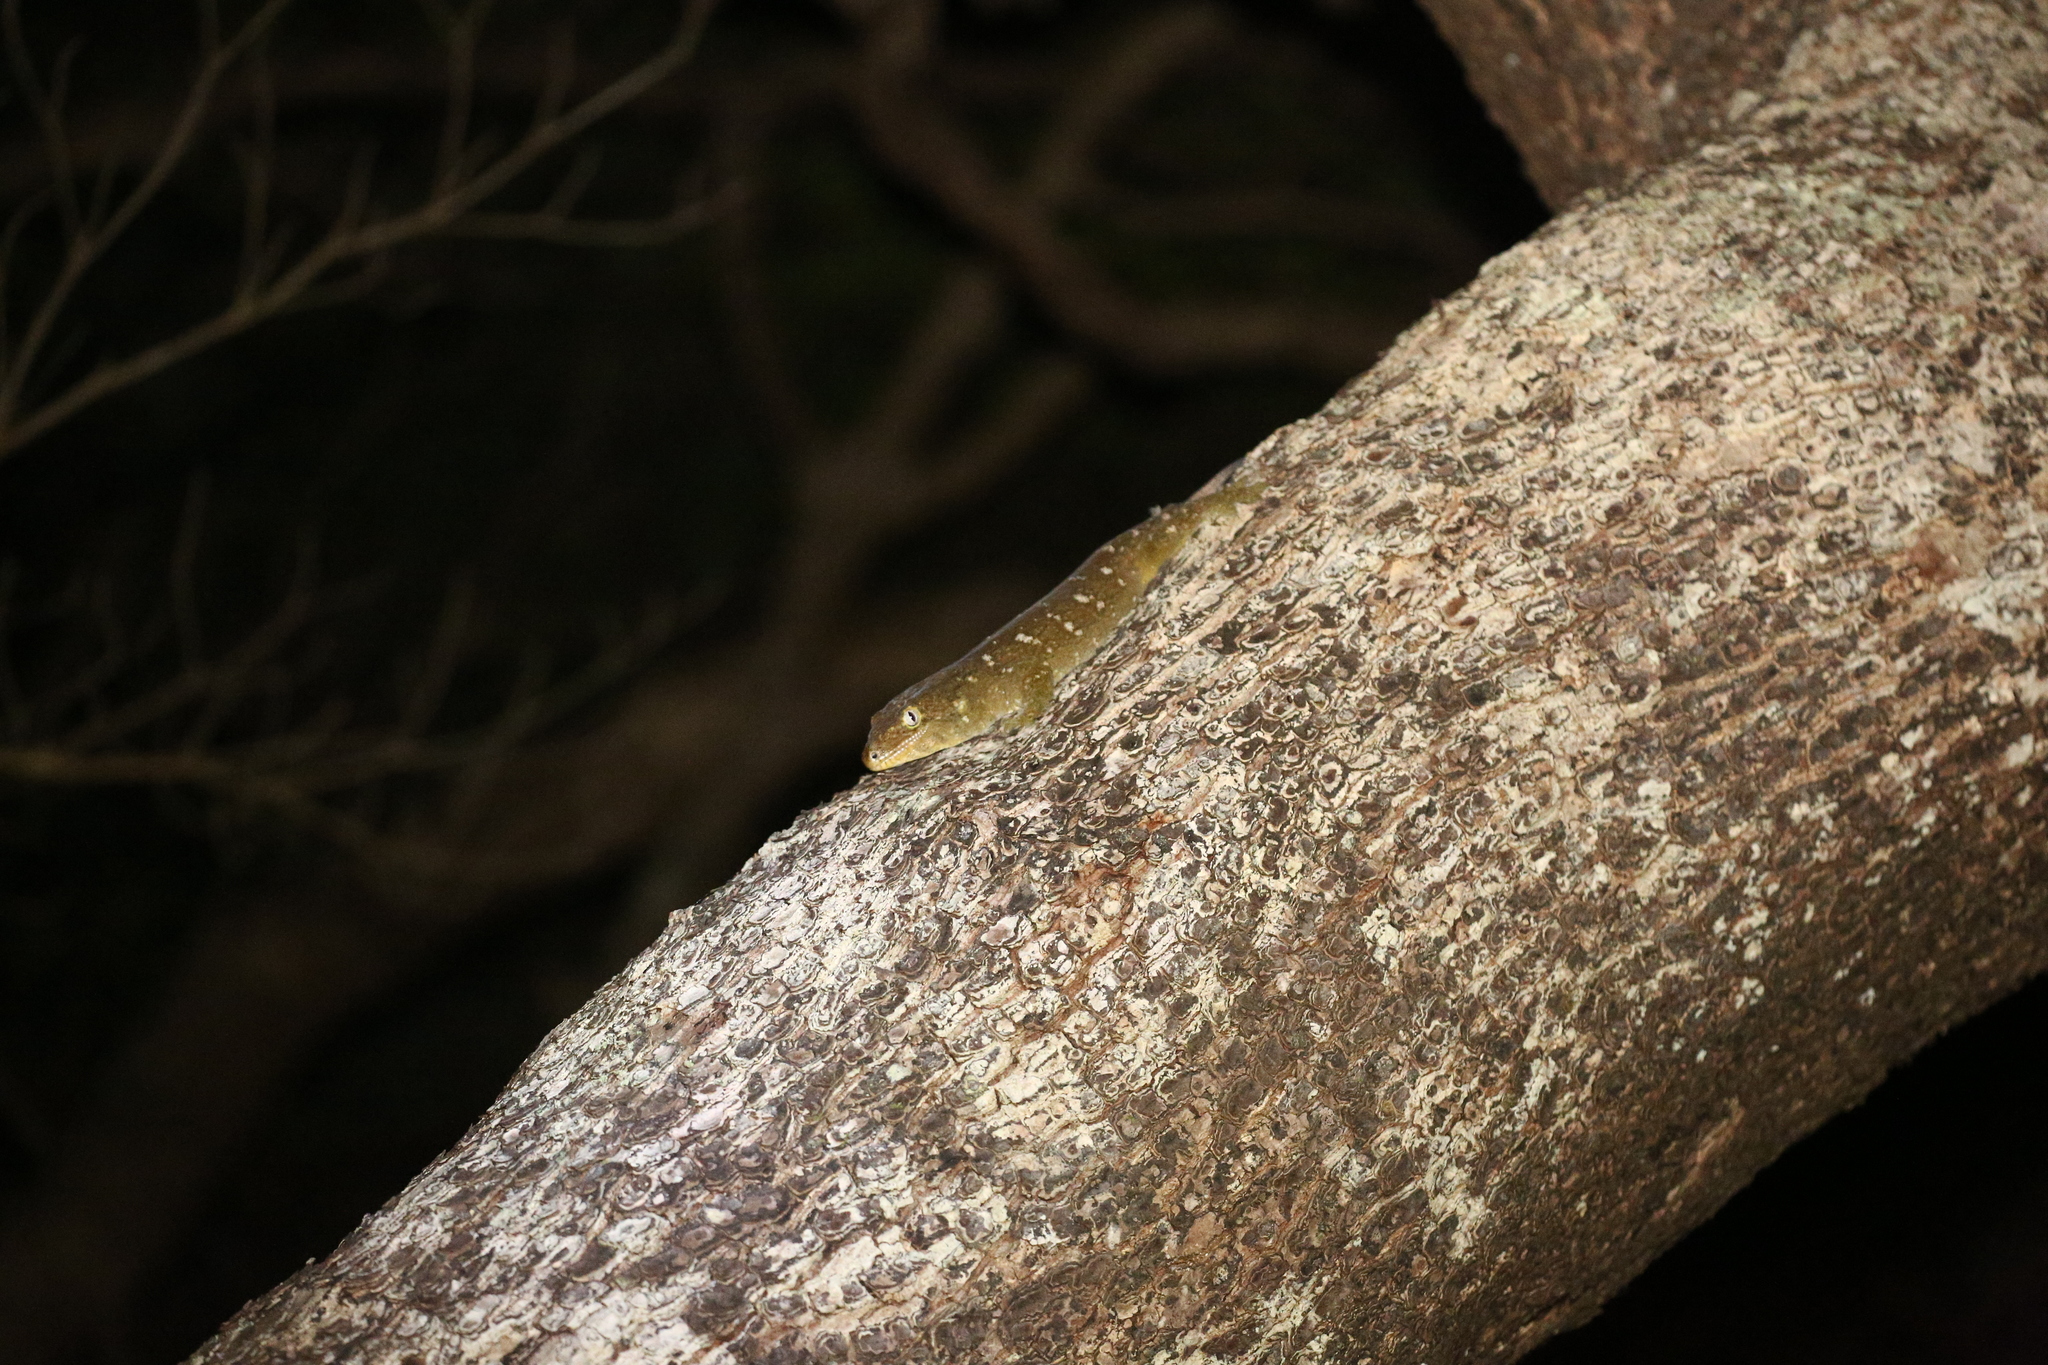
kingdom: Animalia
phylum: Chordata
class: Squamata
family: Diplodactylidae
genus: Rhacodactylus
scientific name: Rhacodactylus leachianus
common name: New caledonia giant gecko
